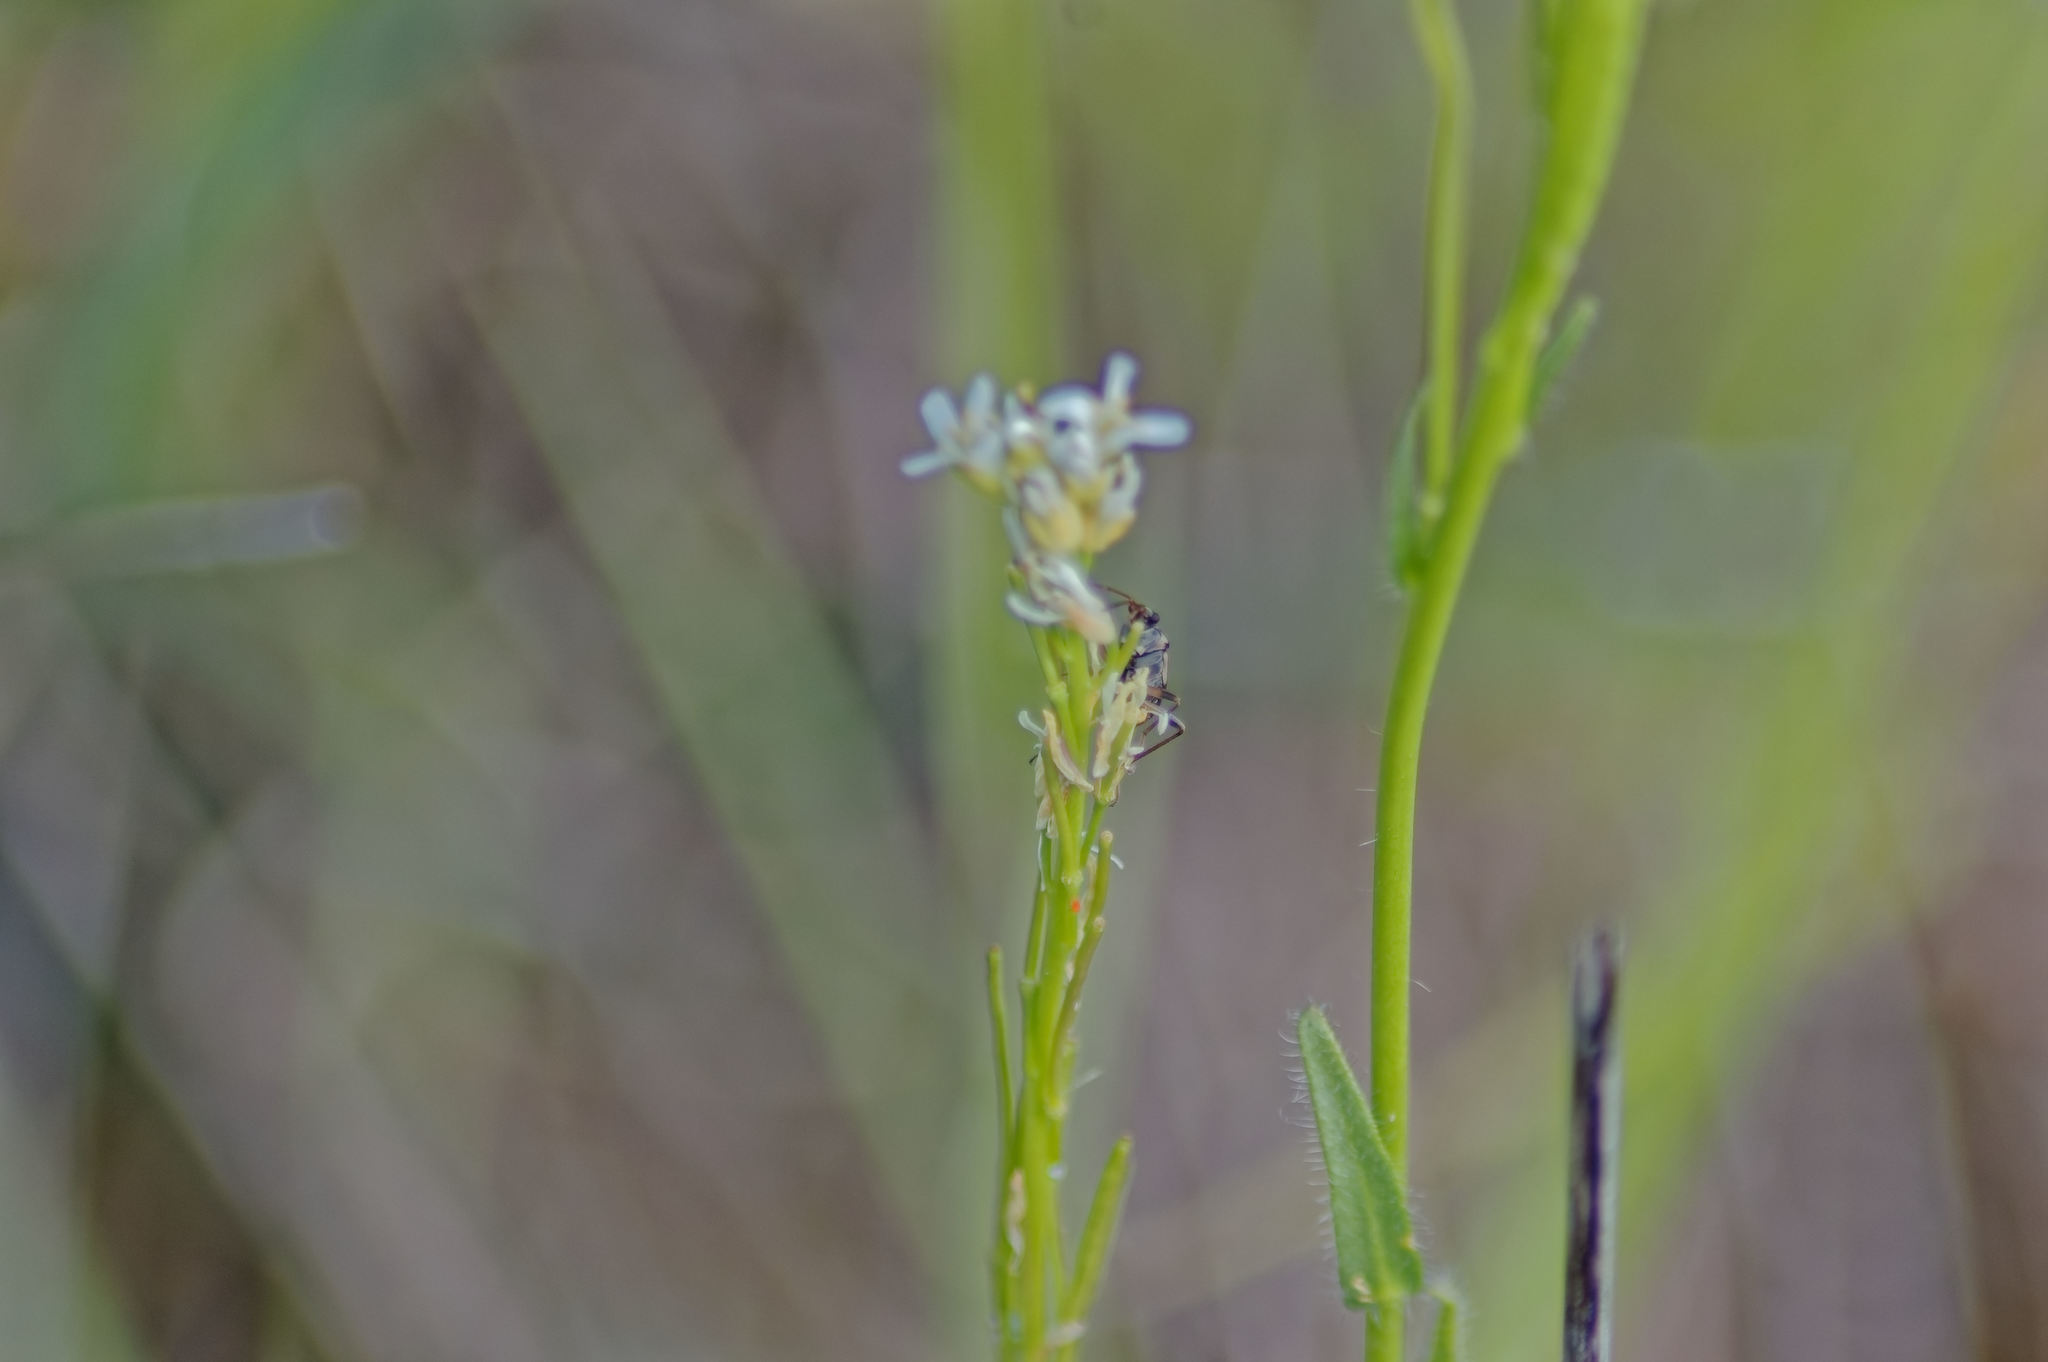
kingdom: Plantae
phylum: Tracheophyta
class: Magnoliopsida
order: Brassicales
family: Brassicaceae
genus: Turritis
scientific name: Turritis glabra
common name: Tower rockcress
